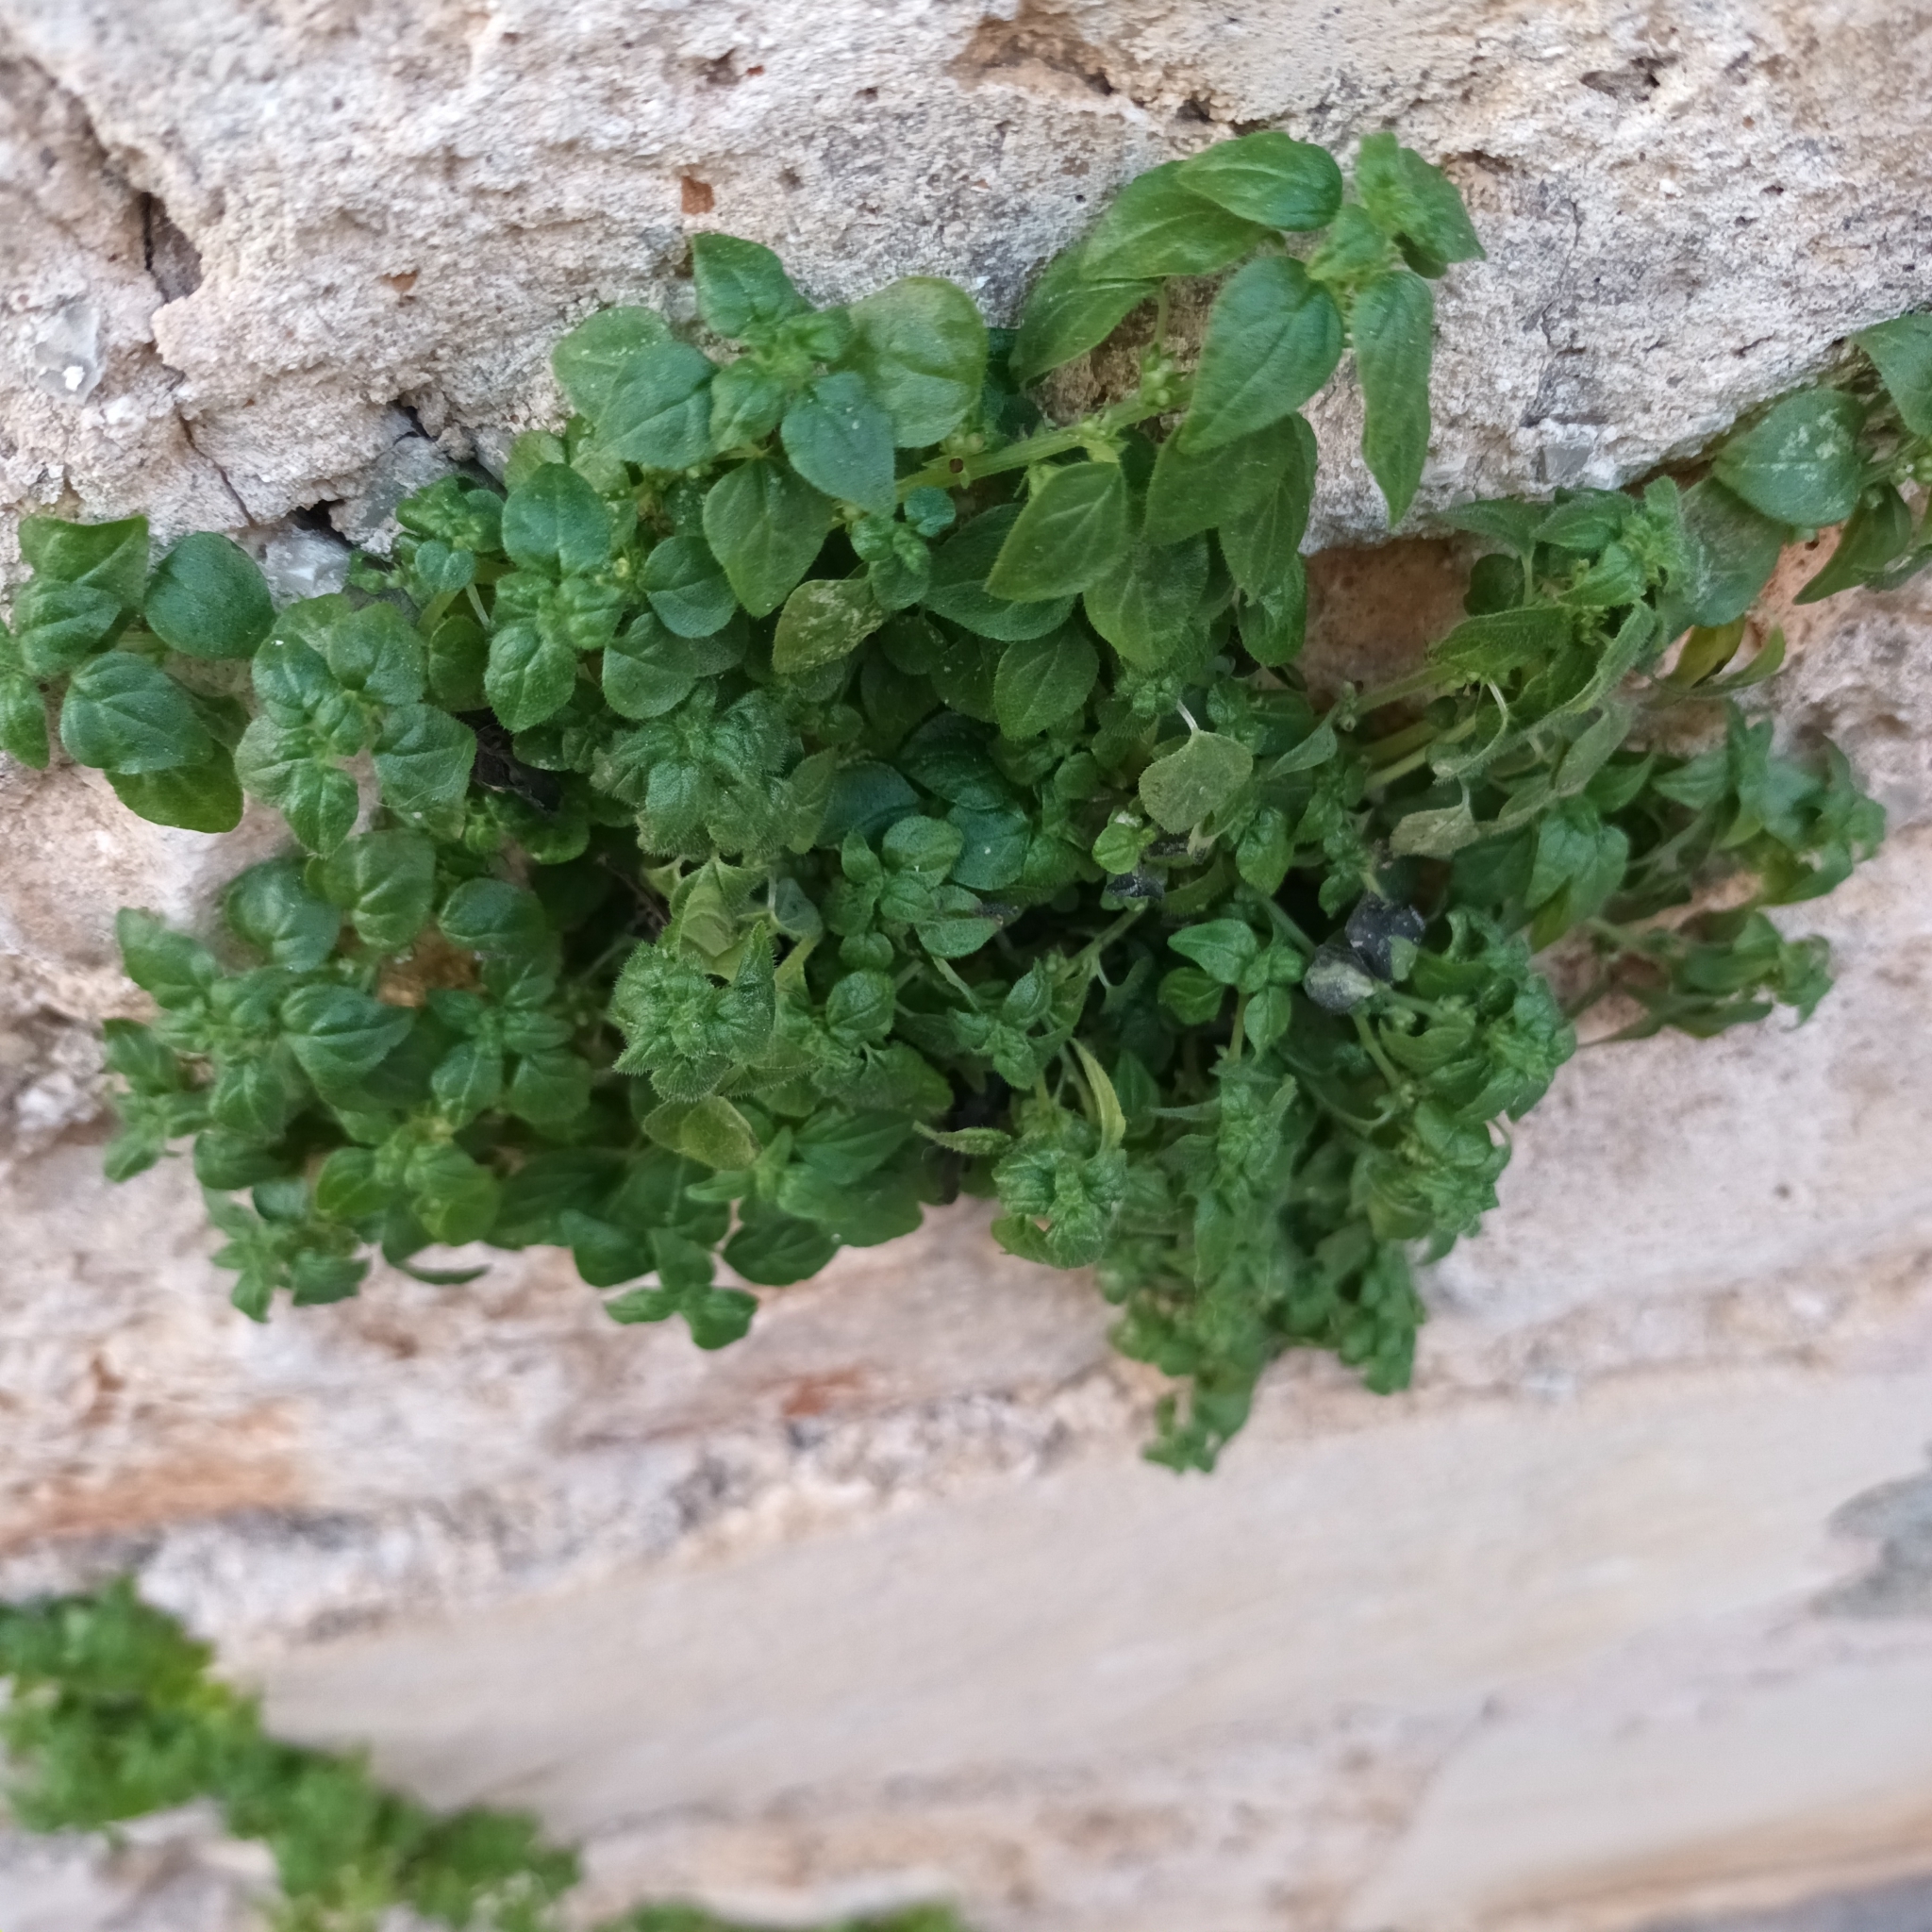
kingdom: Plantae
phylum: Tracheophyta
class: Magnoliopsida
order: Rosales
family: Urticaceae
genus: Parietaria
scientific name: Parietaria judaica
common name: Pellitory-of-the-wall
